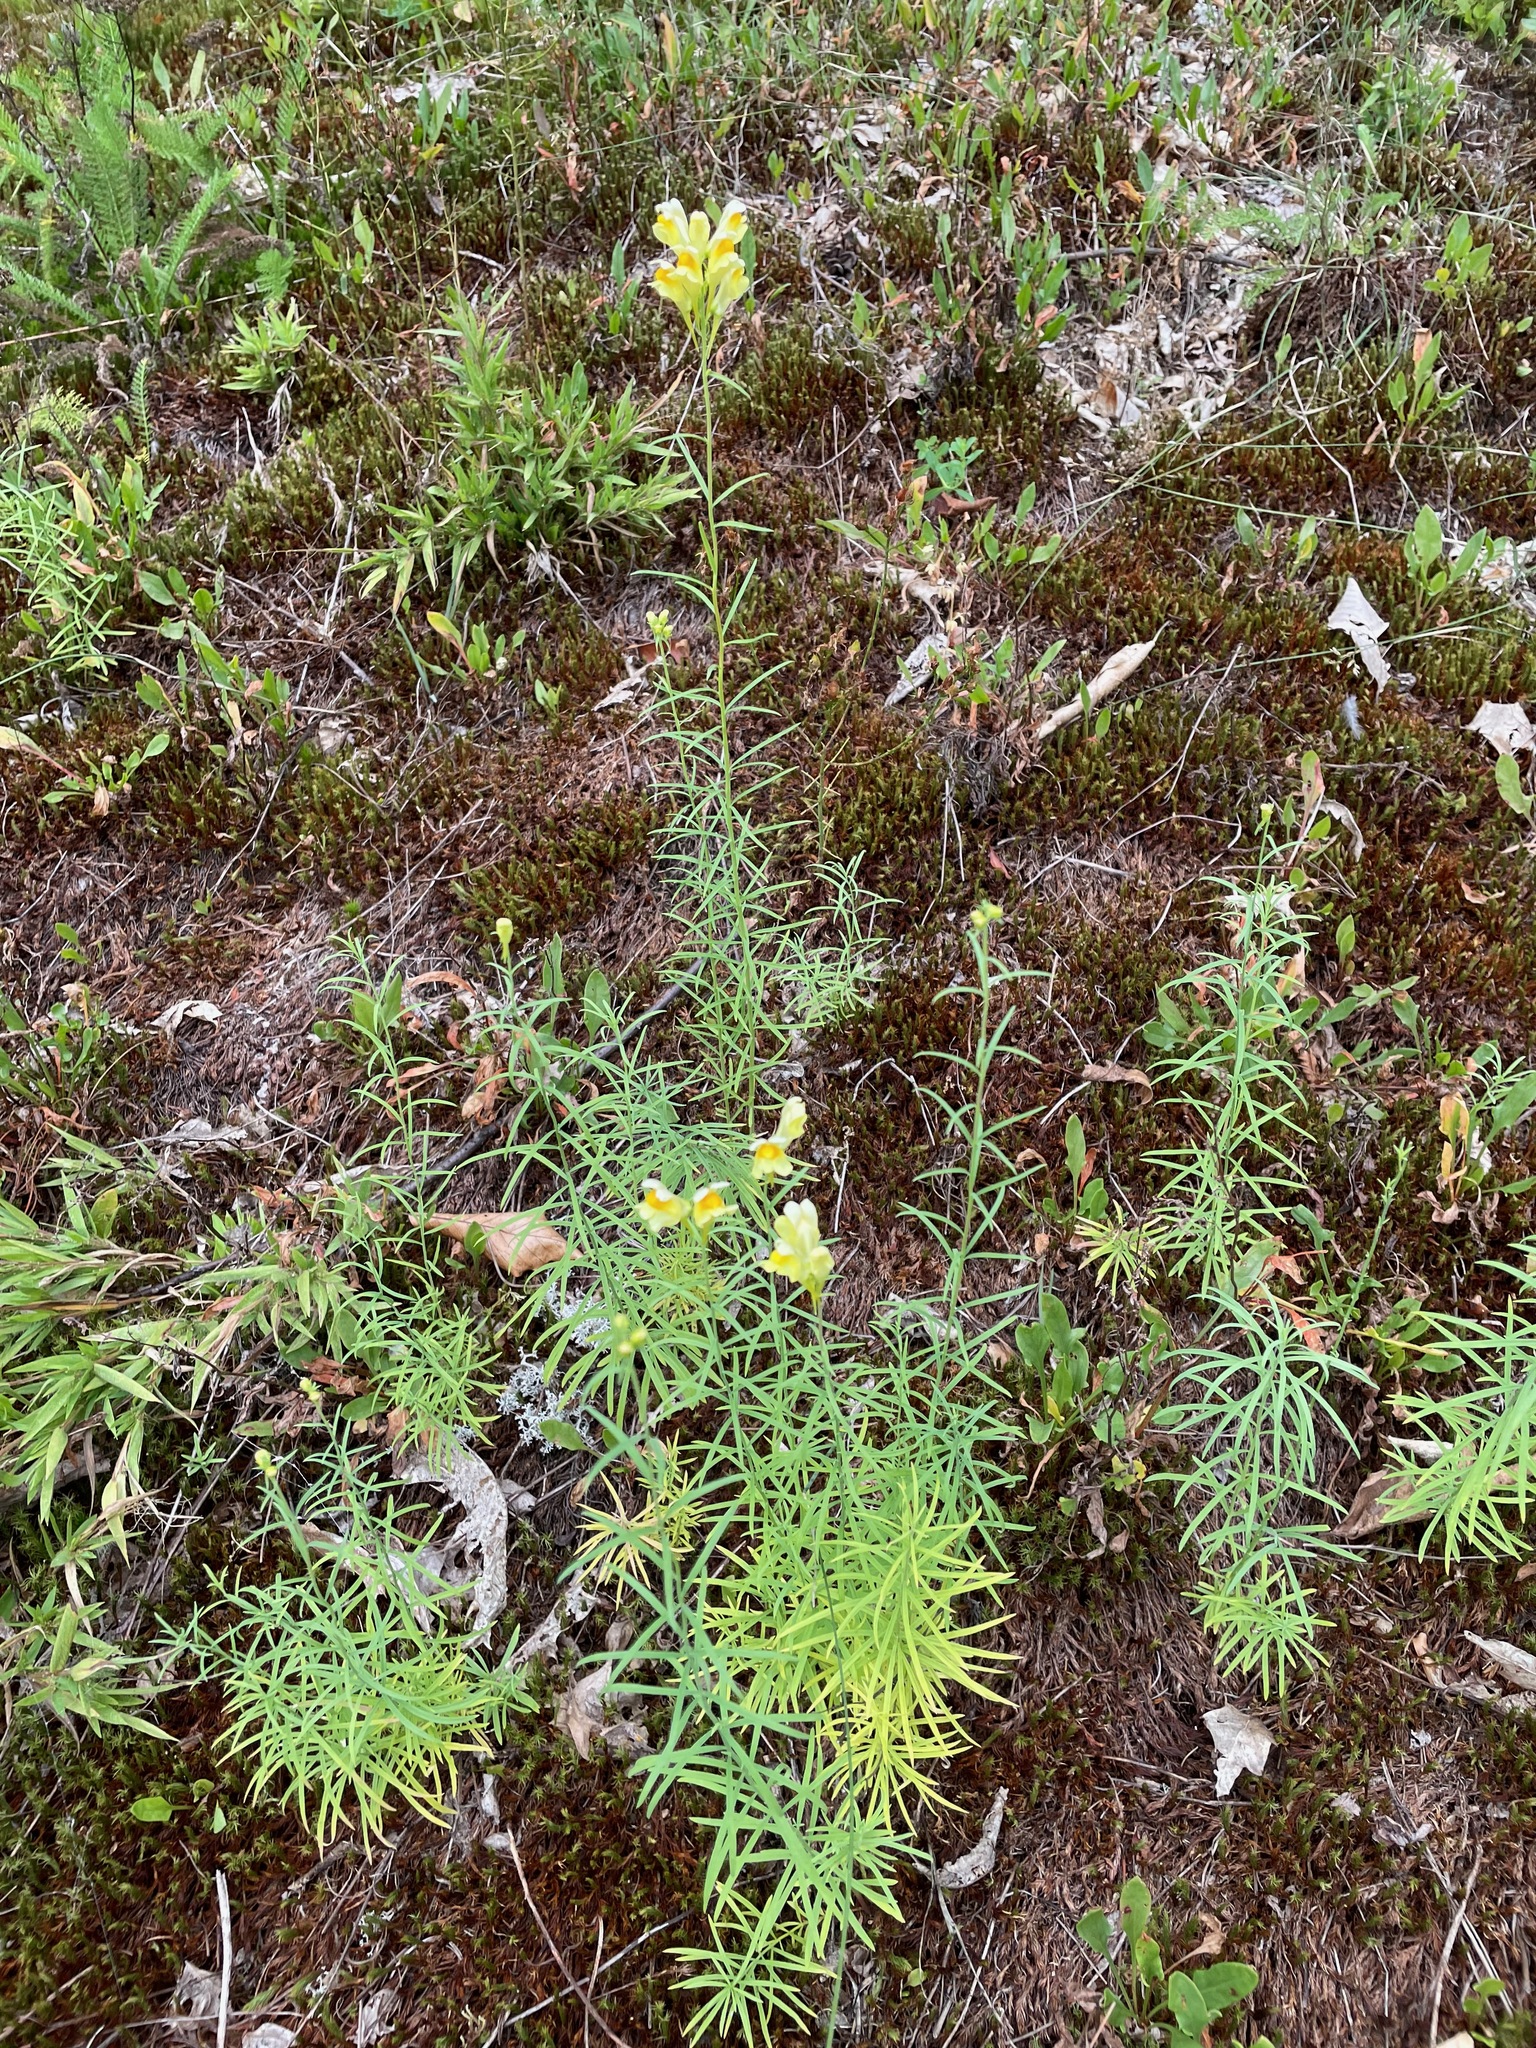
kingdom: Plantae
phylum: Tracheophyta
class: Magnoliopsida
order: Lamiales
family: Plantaginaceae
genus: Linaria
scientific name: Linaria vulgaris
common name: Butter and eggs
